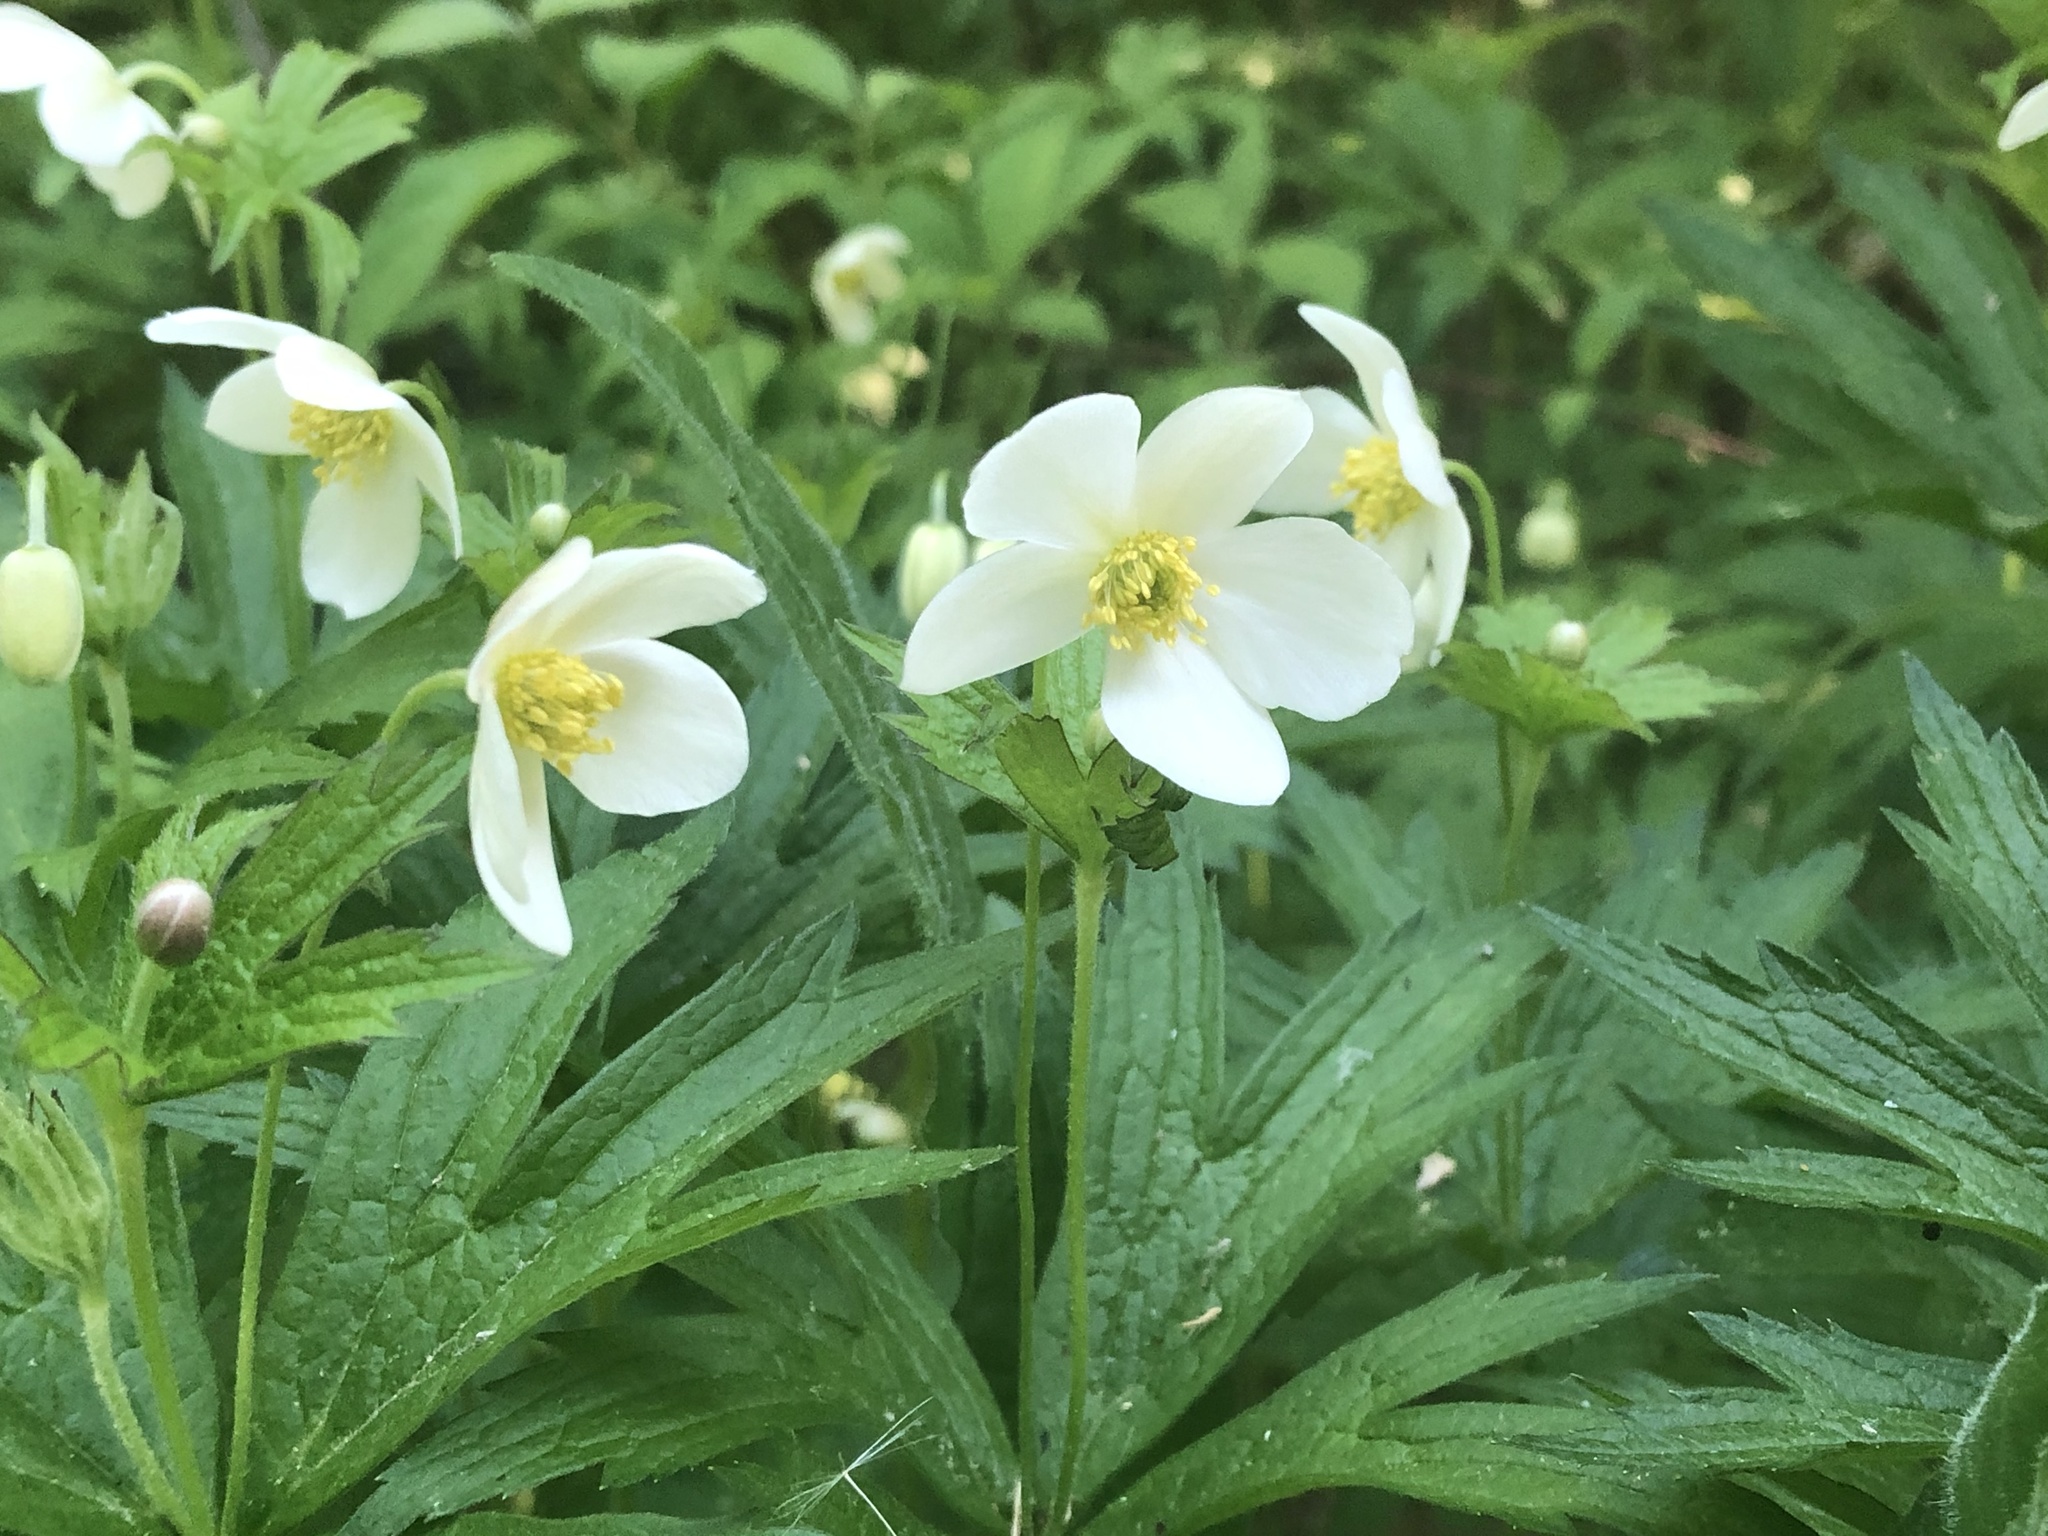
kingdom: Plantae
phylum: Tracheophyta
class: Magnoliopsida
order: Ranunculales
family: Ranunculaceae
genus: Anemonastrum
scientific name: Anemonastrum canadense
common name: Canada anemone
